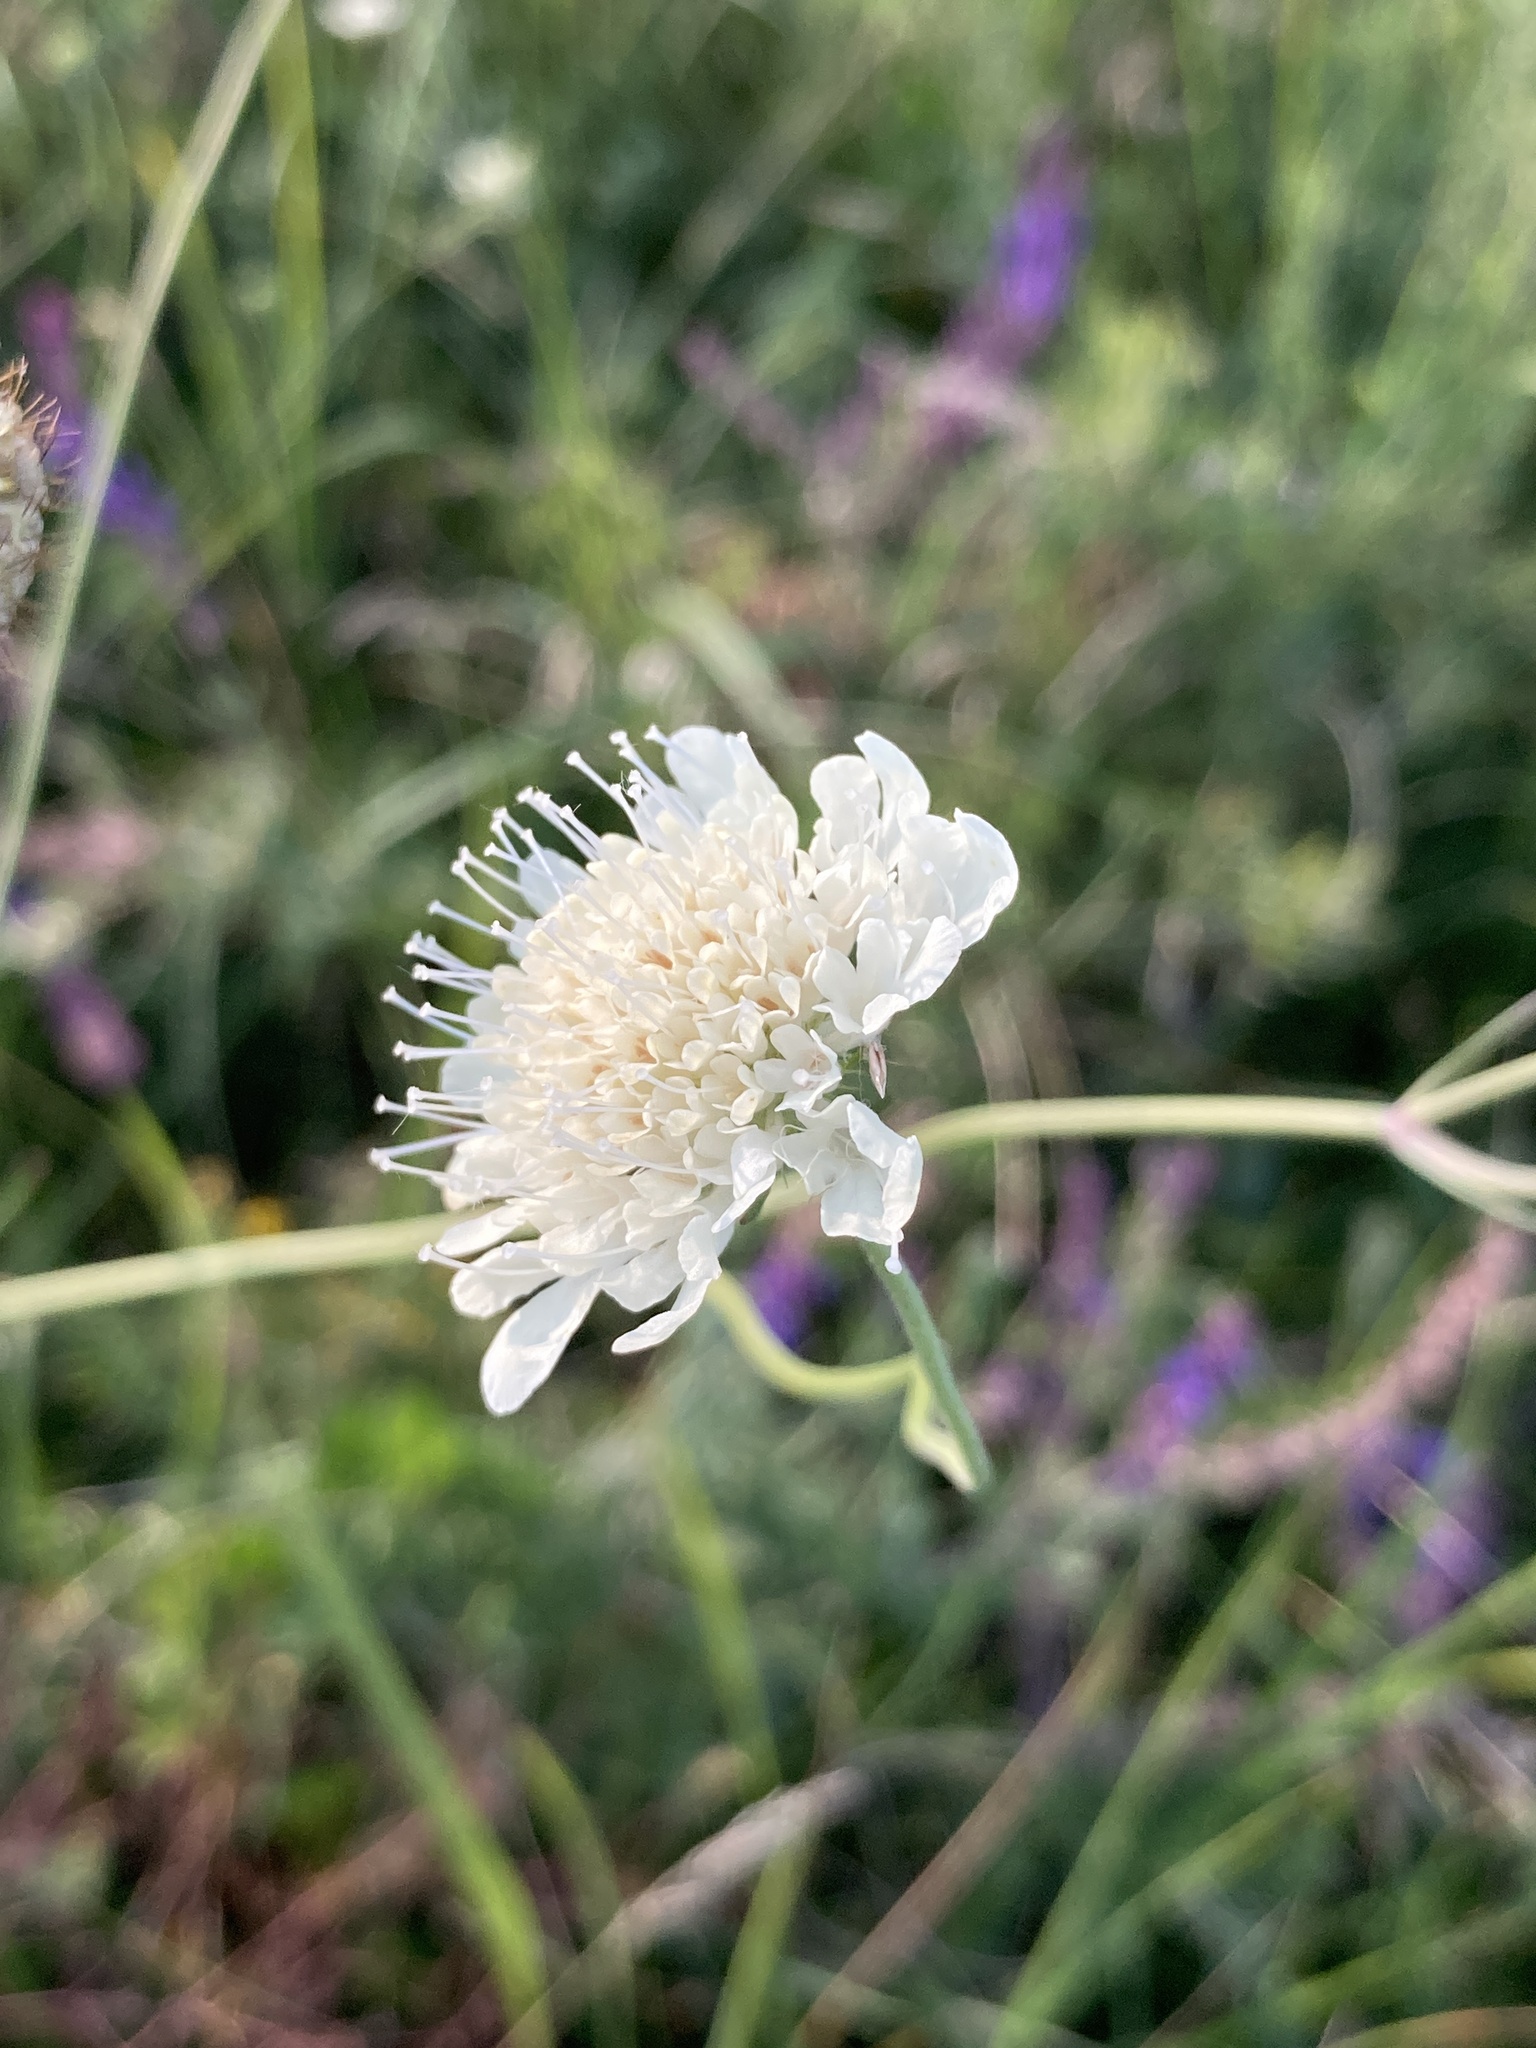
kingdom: Plantae
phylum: Tracheophyta
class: Magnoliopsida
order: Dipsacales
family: Caprifoliaceae
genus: Scabiosa
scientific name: Scabiosa ochroleuca
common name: Cream pincushions
